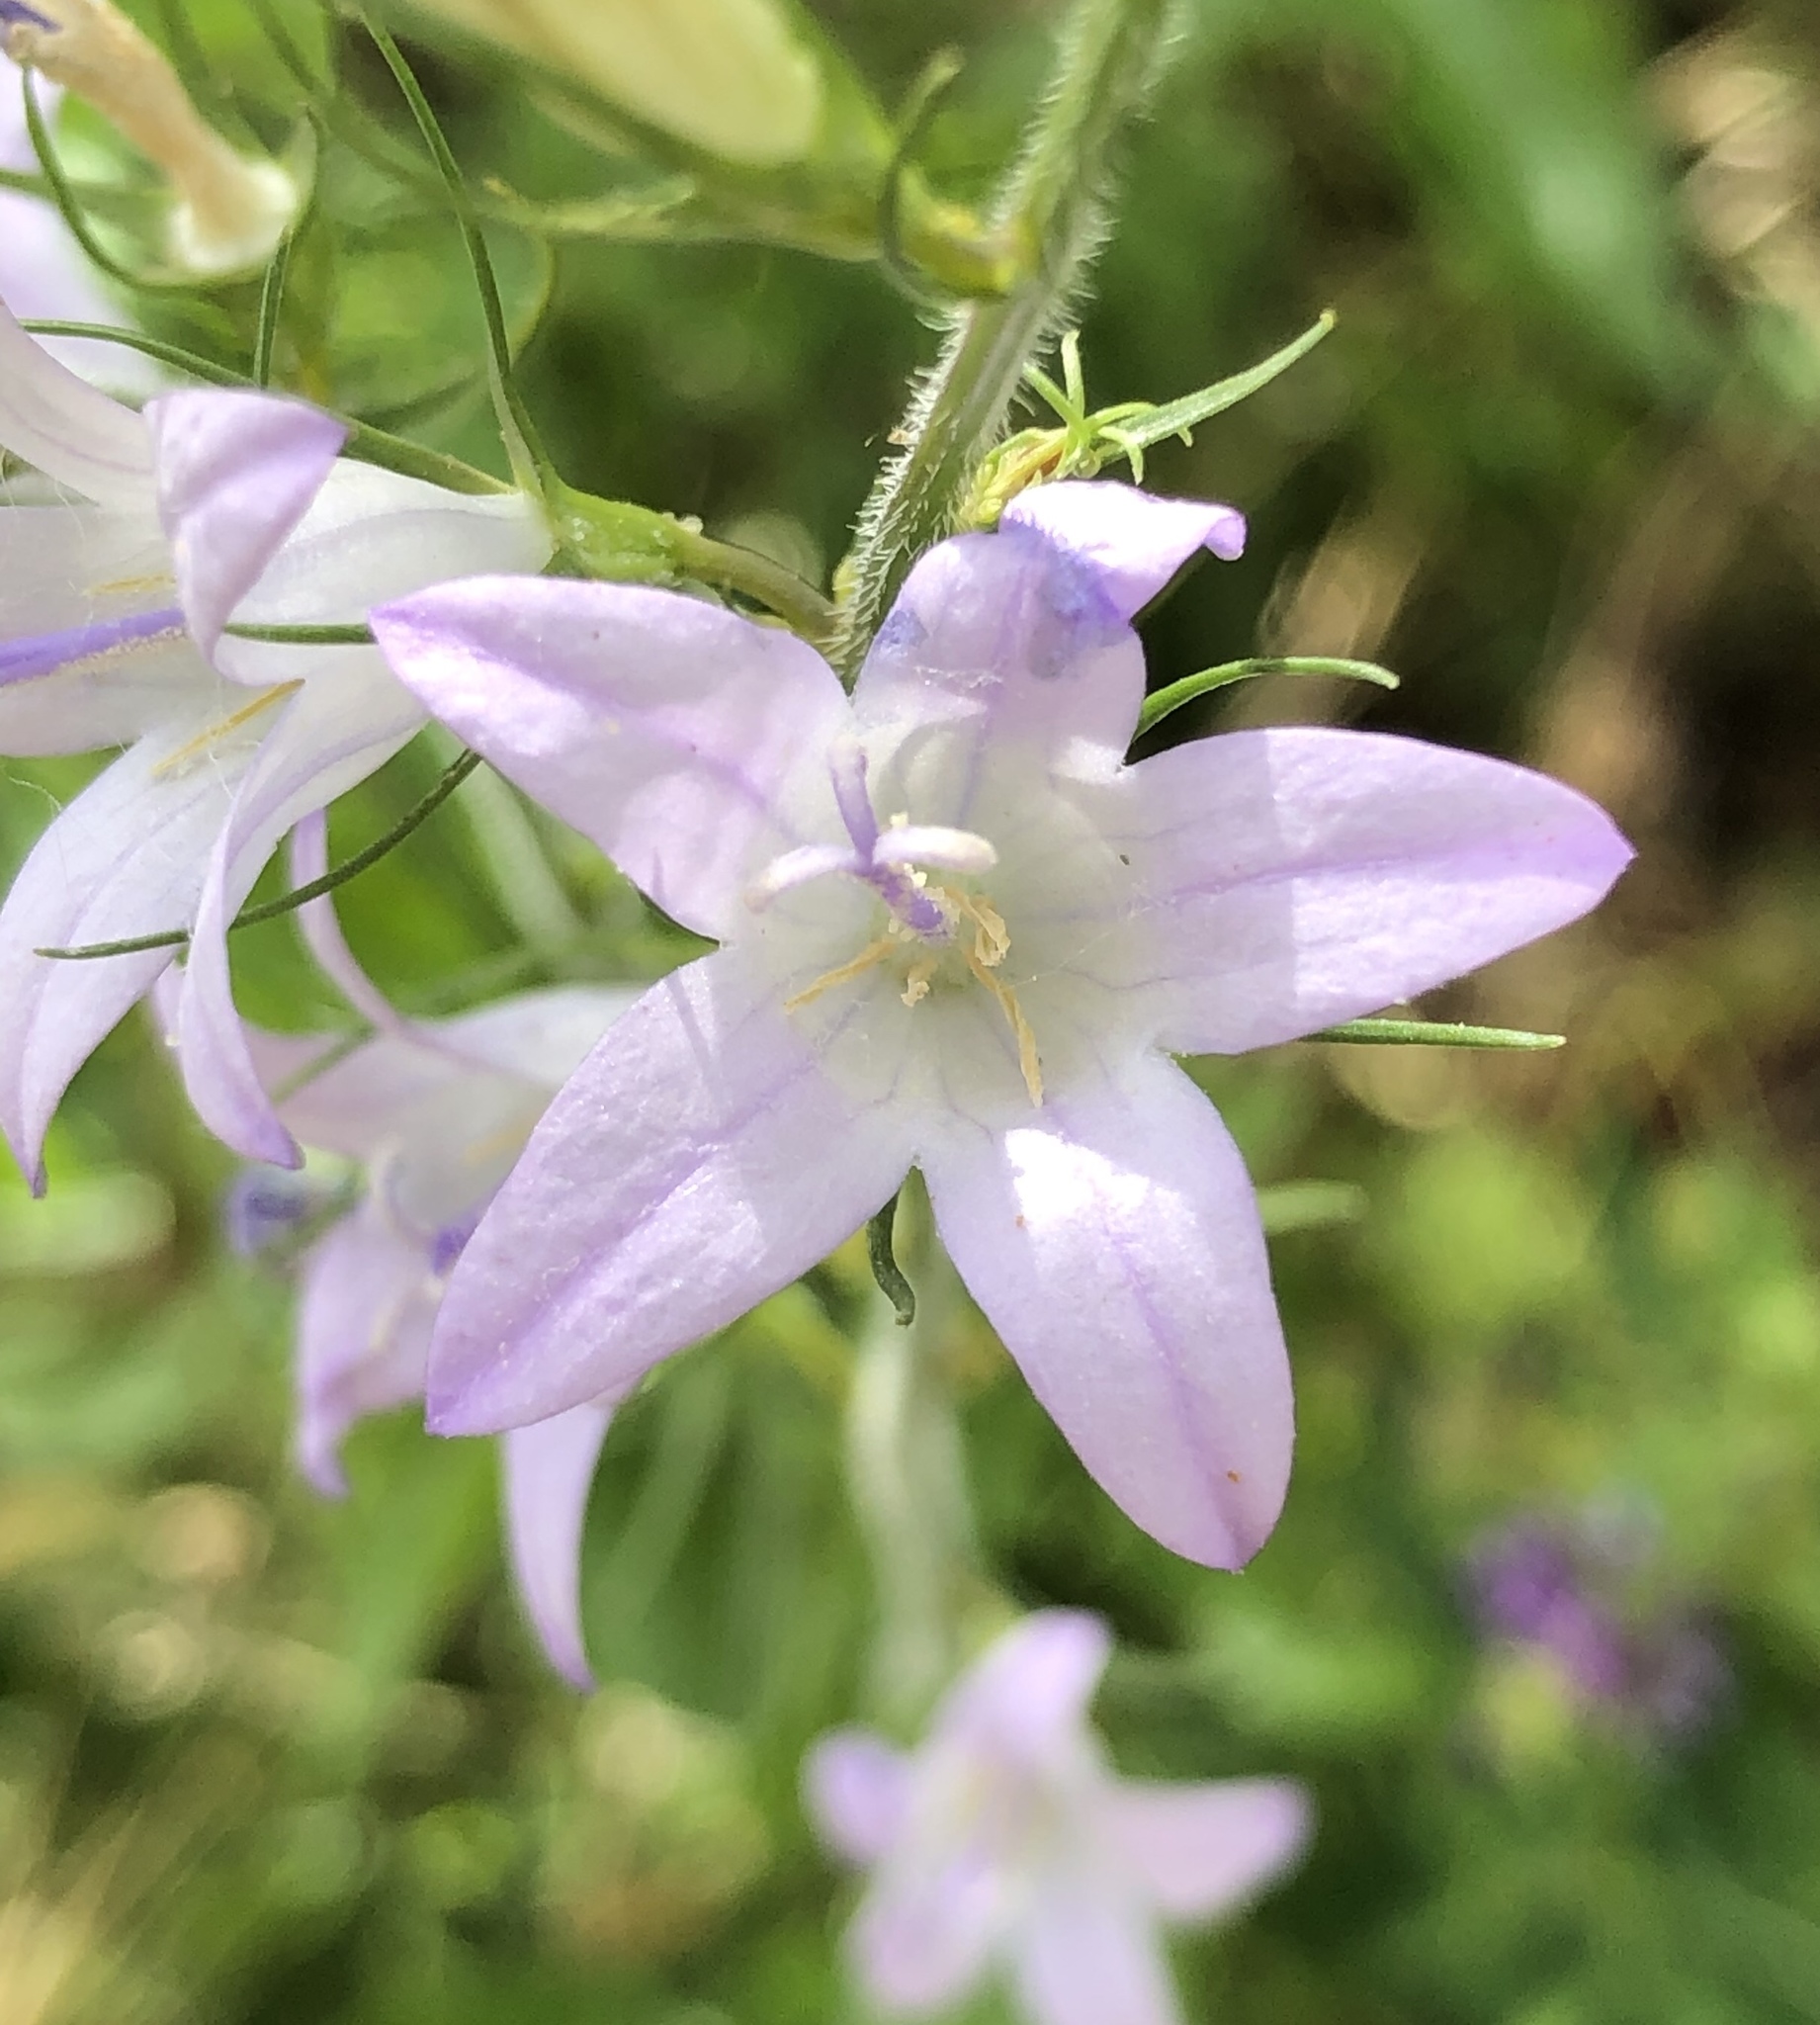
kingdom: Plantae
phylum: Tracheophyta
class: Magnoliopsida
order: Asterales
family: Campanulaceae
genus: Campanula
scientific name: Campanula rapunculus
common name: Rampion bellflower
